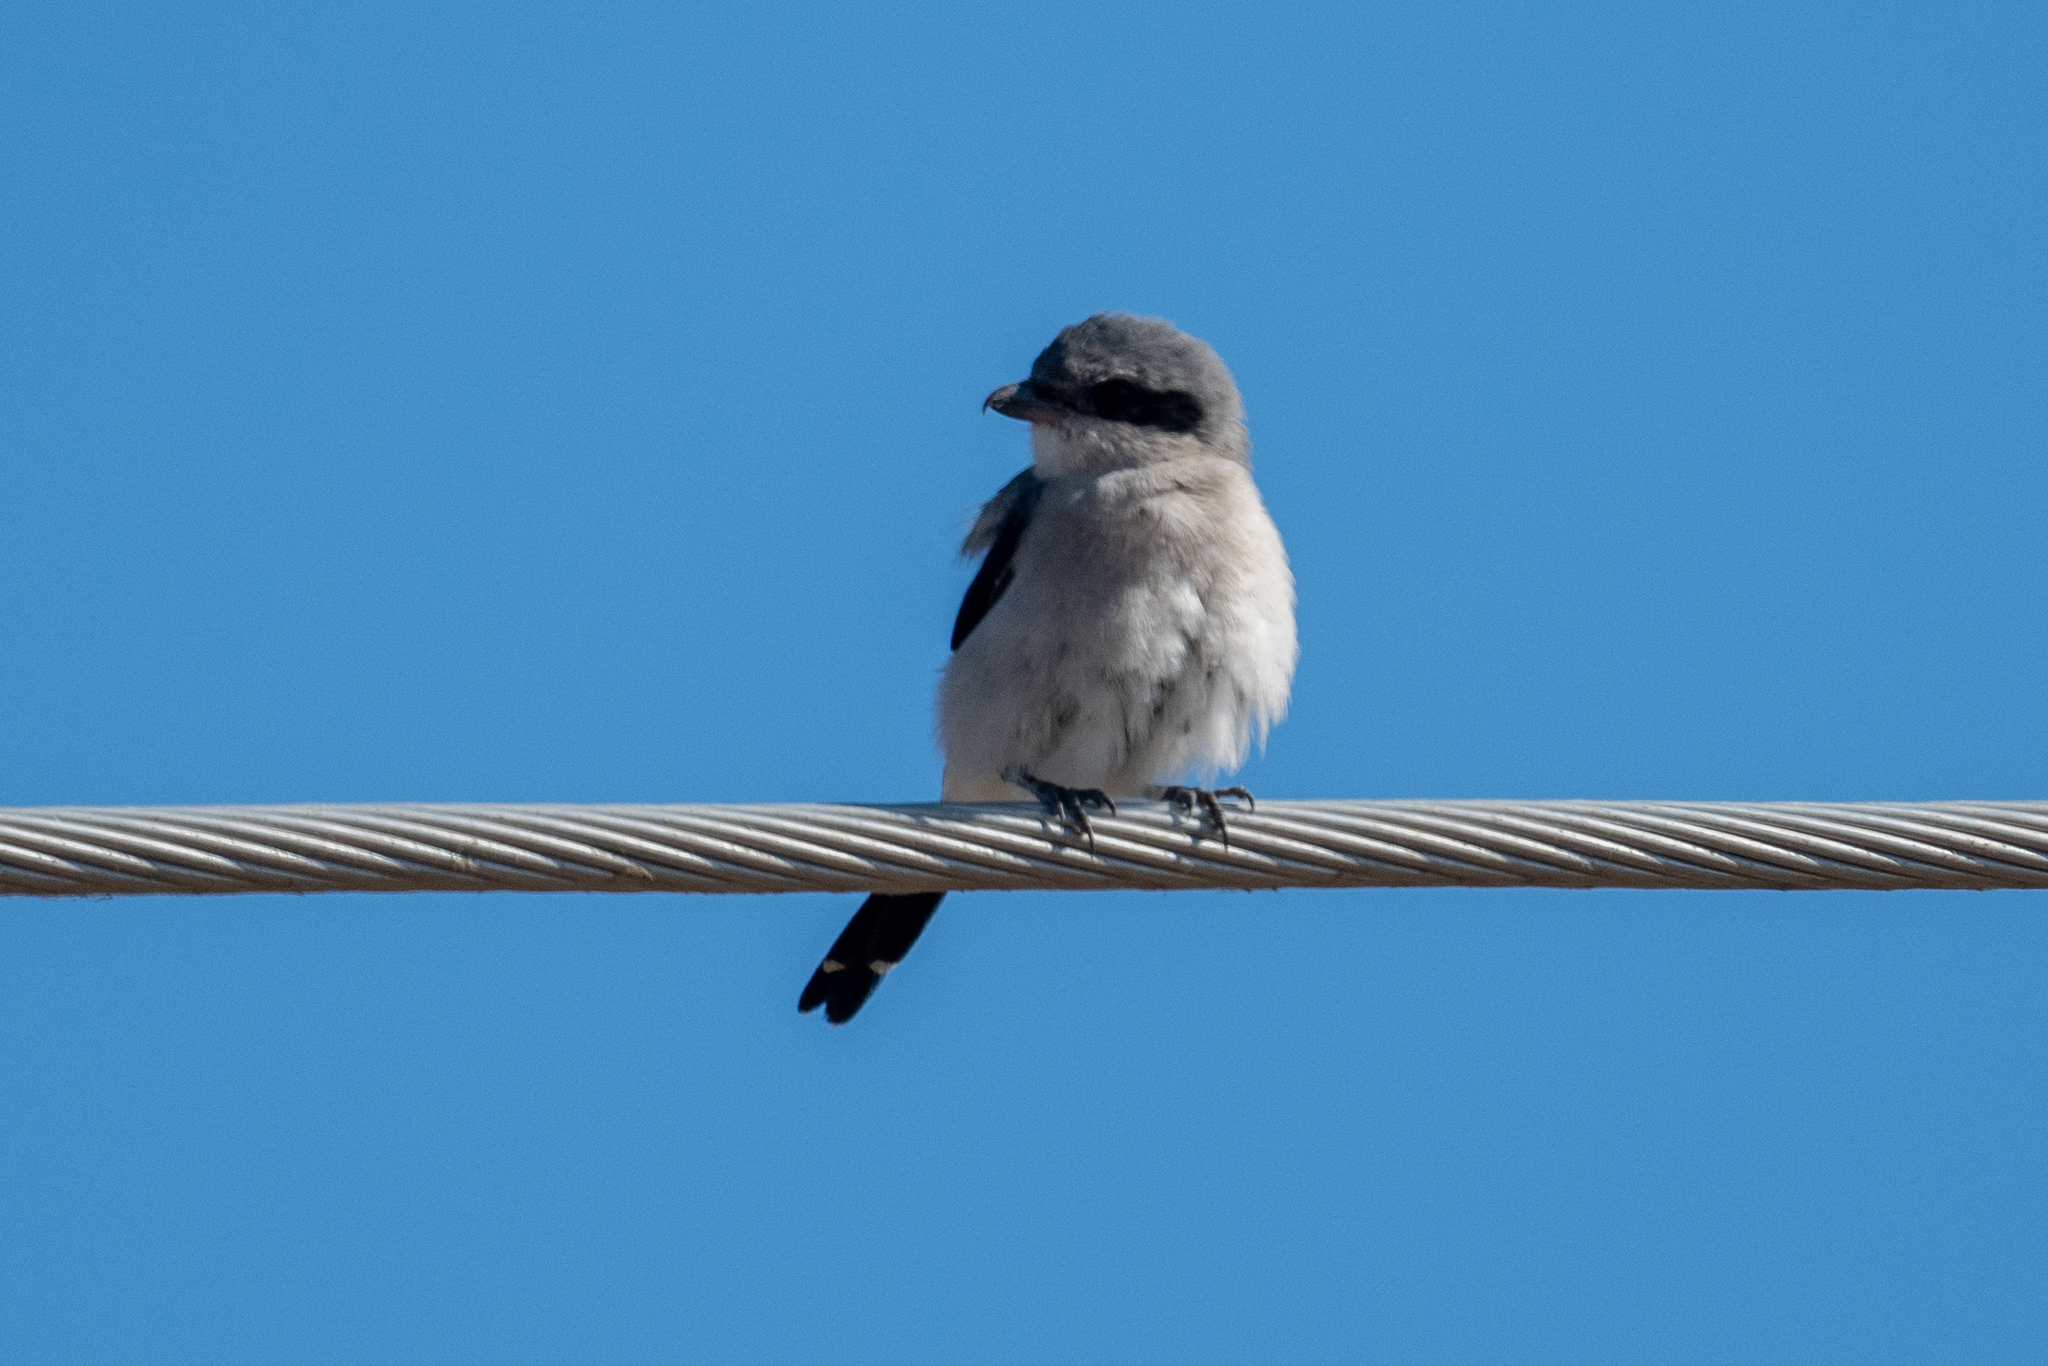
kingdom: Animalia
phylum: Chordata
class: Aves
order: Passeriformes
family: Laniidae
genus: Lanius
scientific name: Lanius ludovicianus
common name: Loggerhead shrike
